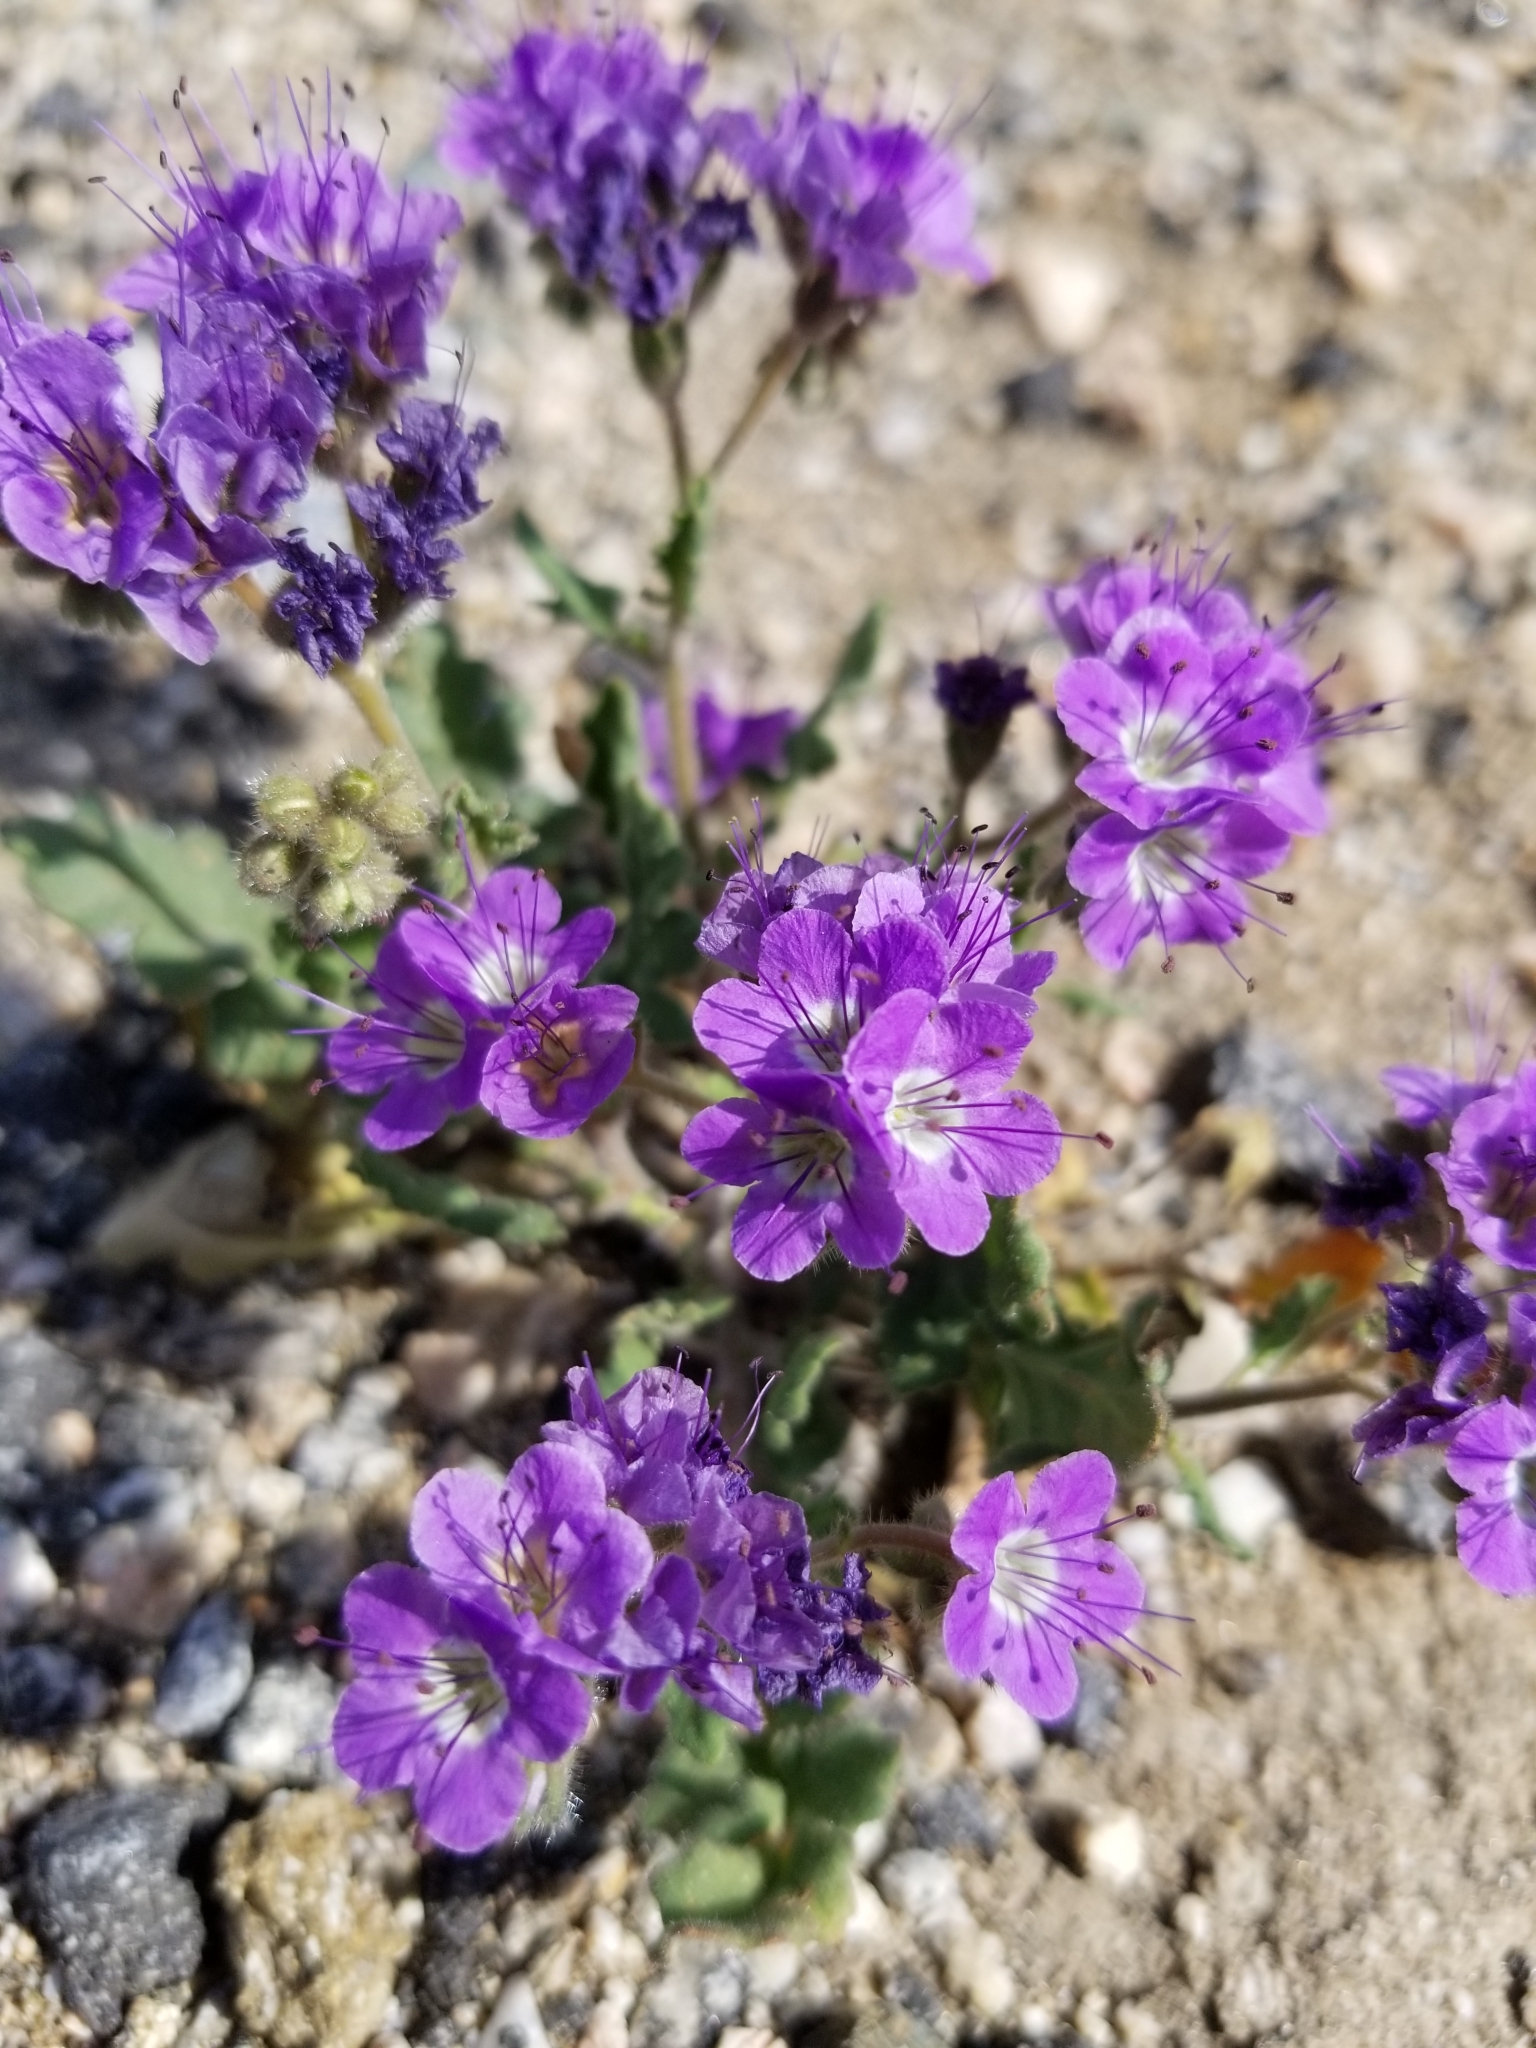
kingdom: Plantae
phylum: Tracheophyta
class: Magnoliopsida
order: Boraginales
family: Hydrophyllaceae
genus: Phacelia
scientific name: Phacelia crenulata
